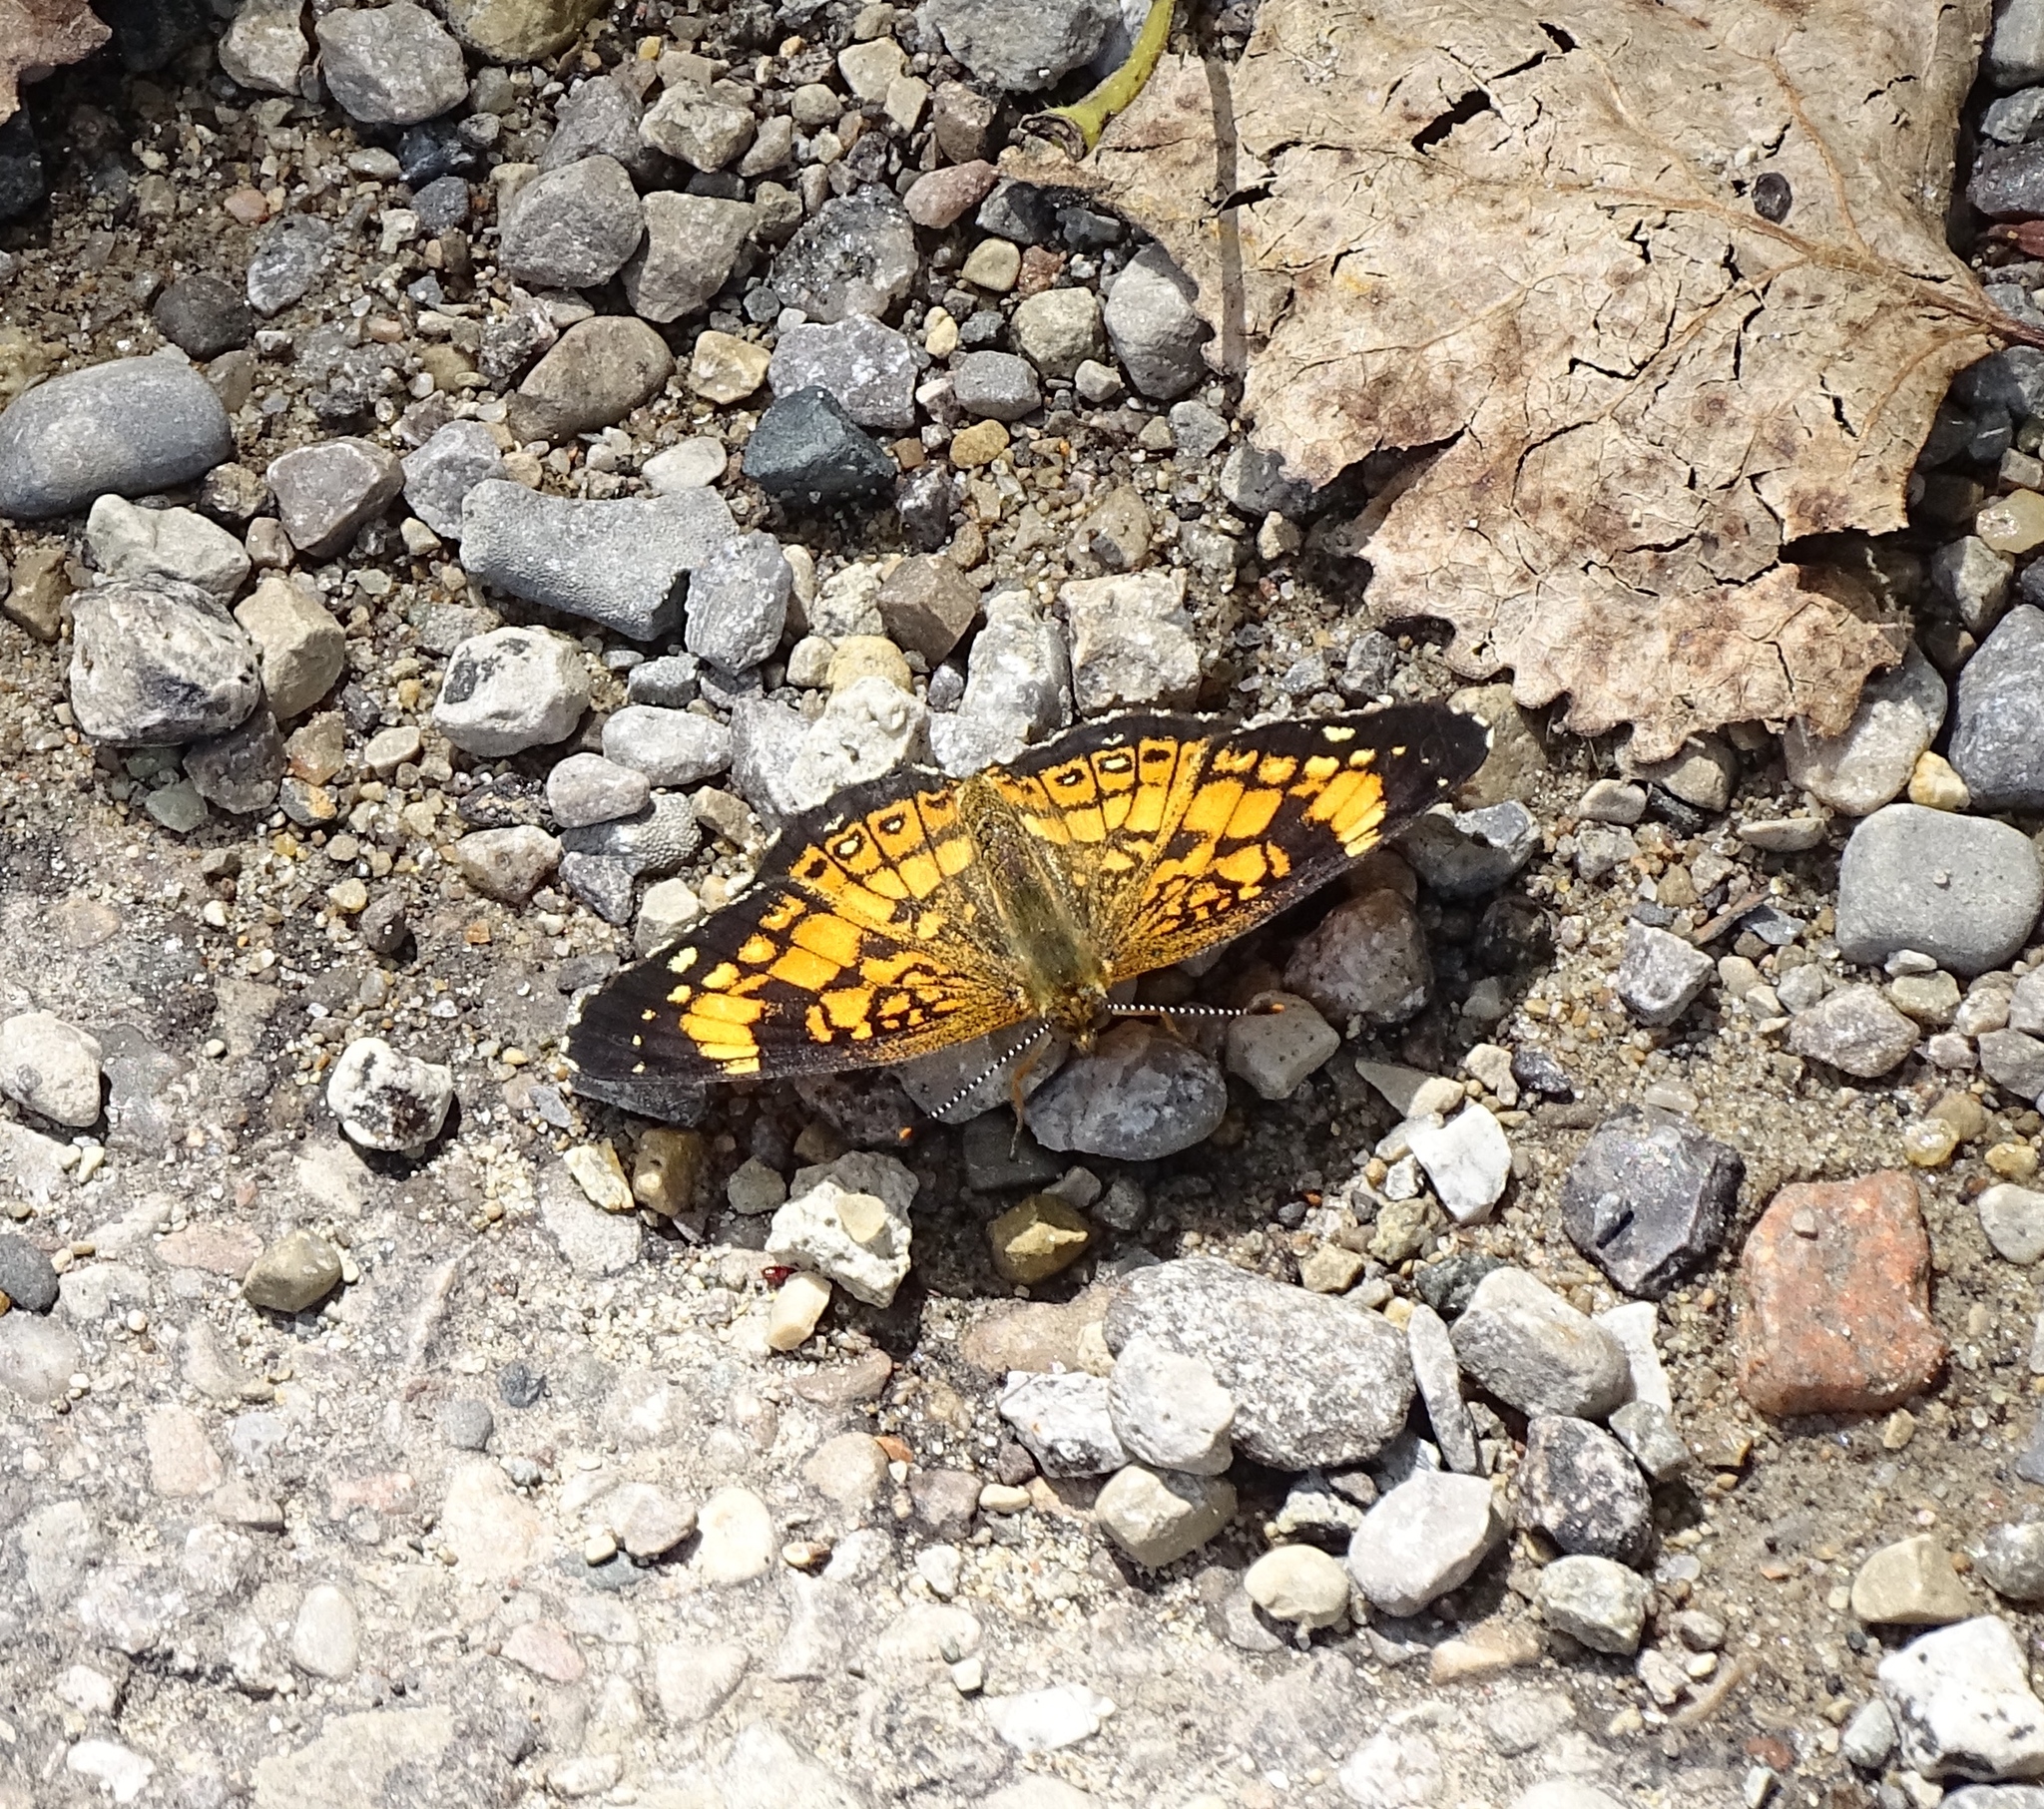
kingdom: Animalia
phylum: Arthropoda
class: Insecta
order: Lepidoptera
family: Nymphalidae
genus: Chlosyne
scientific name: Chlosyne nycteis
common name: Silvery checkerspot
